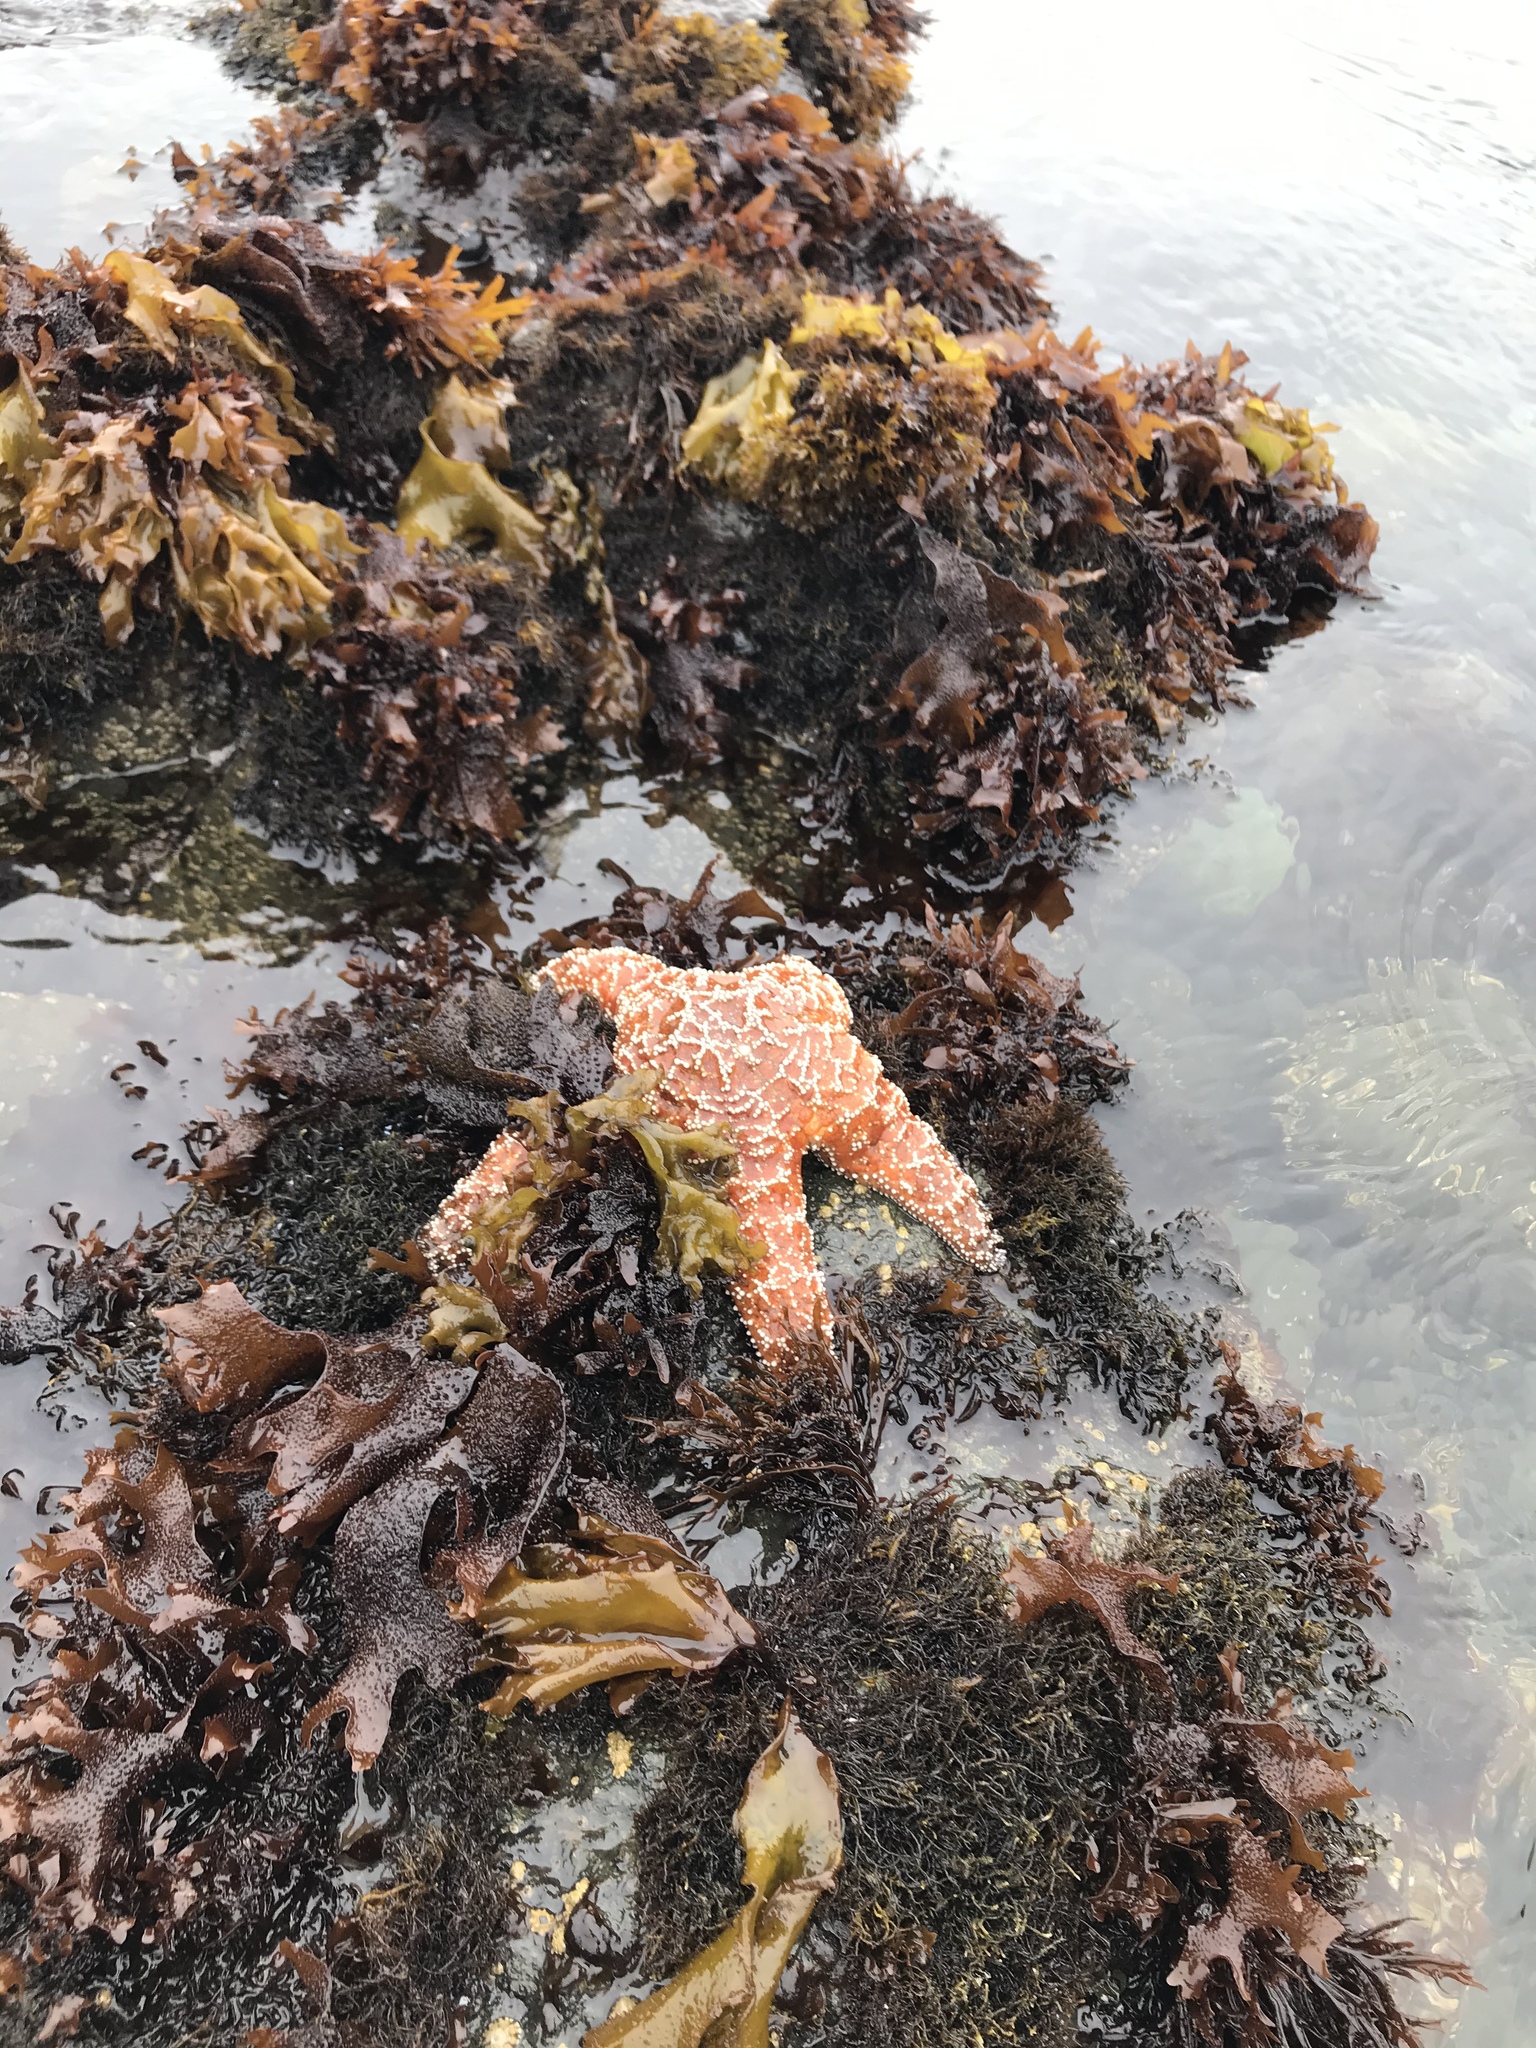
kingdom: Animalia
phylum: Echinodermata
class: Asteroidea
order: Forcipulatida
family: Asteriidae
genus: Pisaster
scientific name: Pisaster ochraceus
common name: Ochre stars
